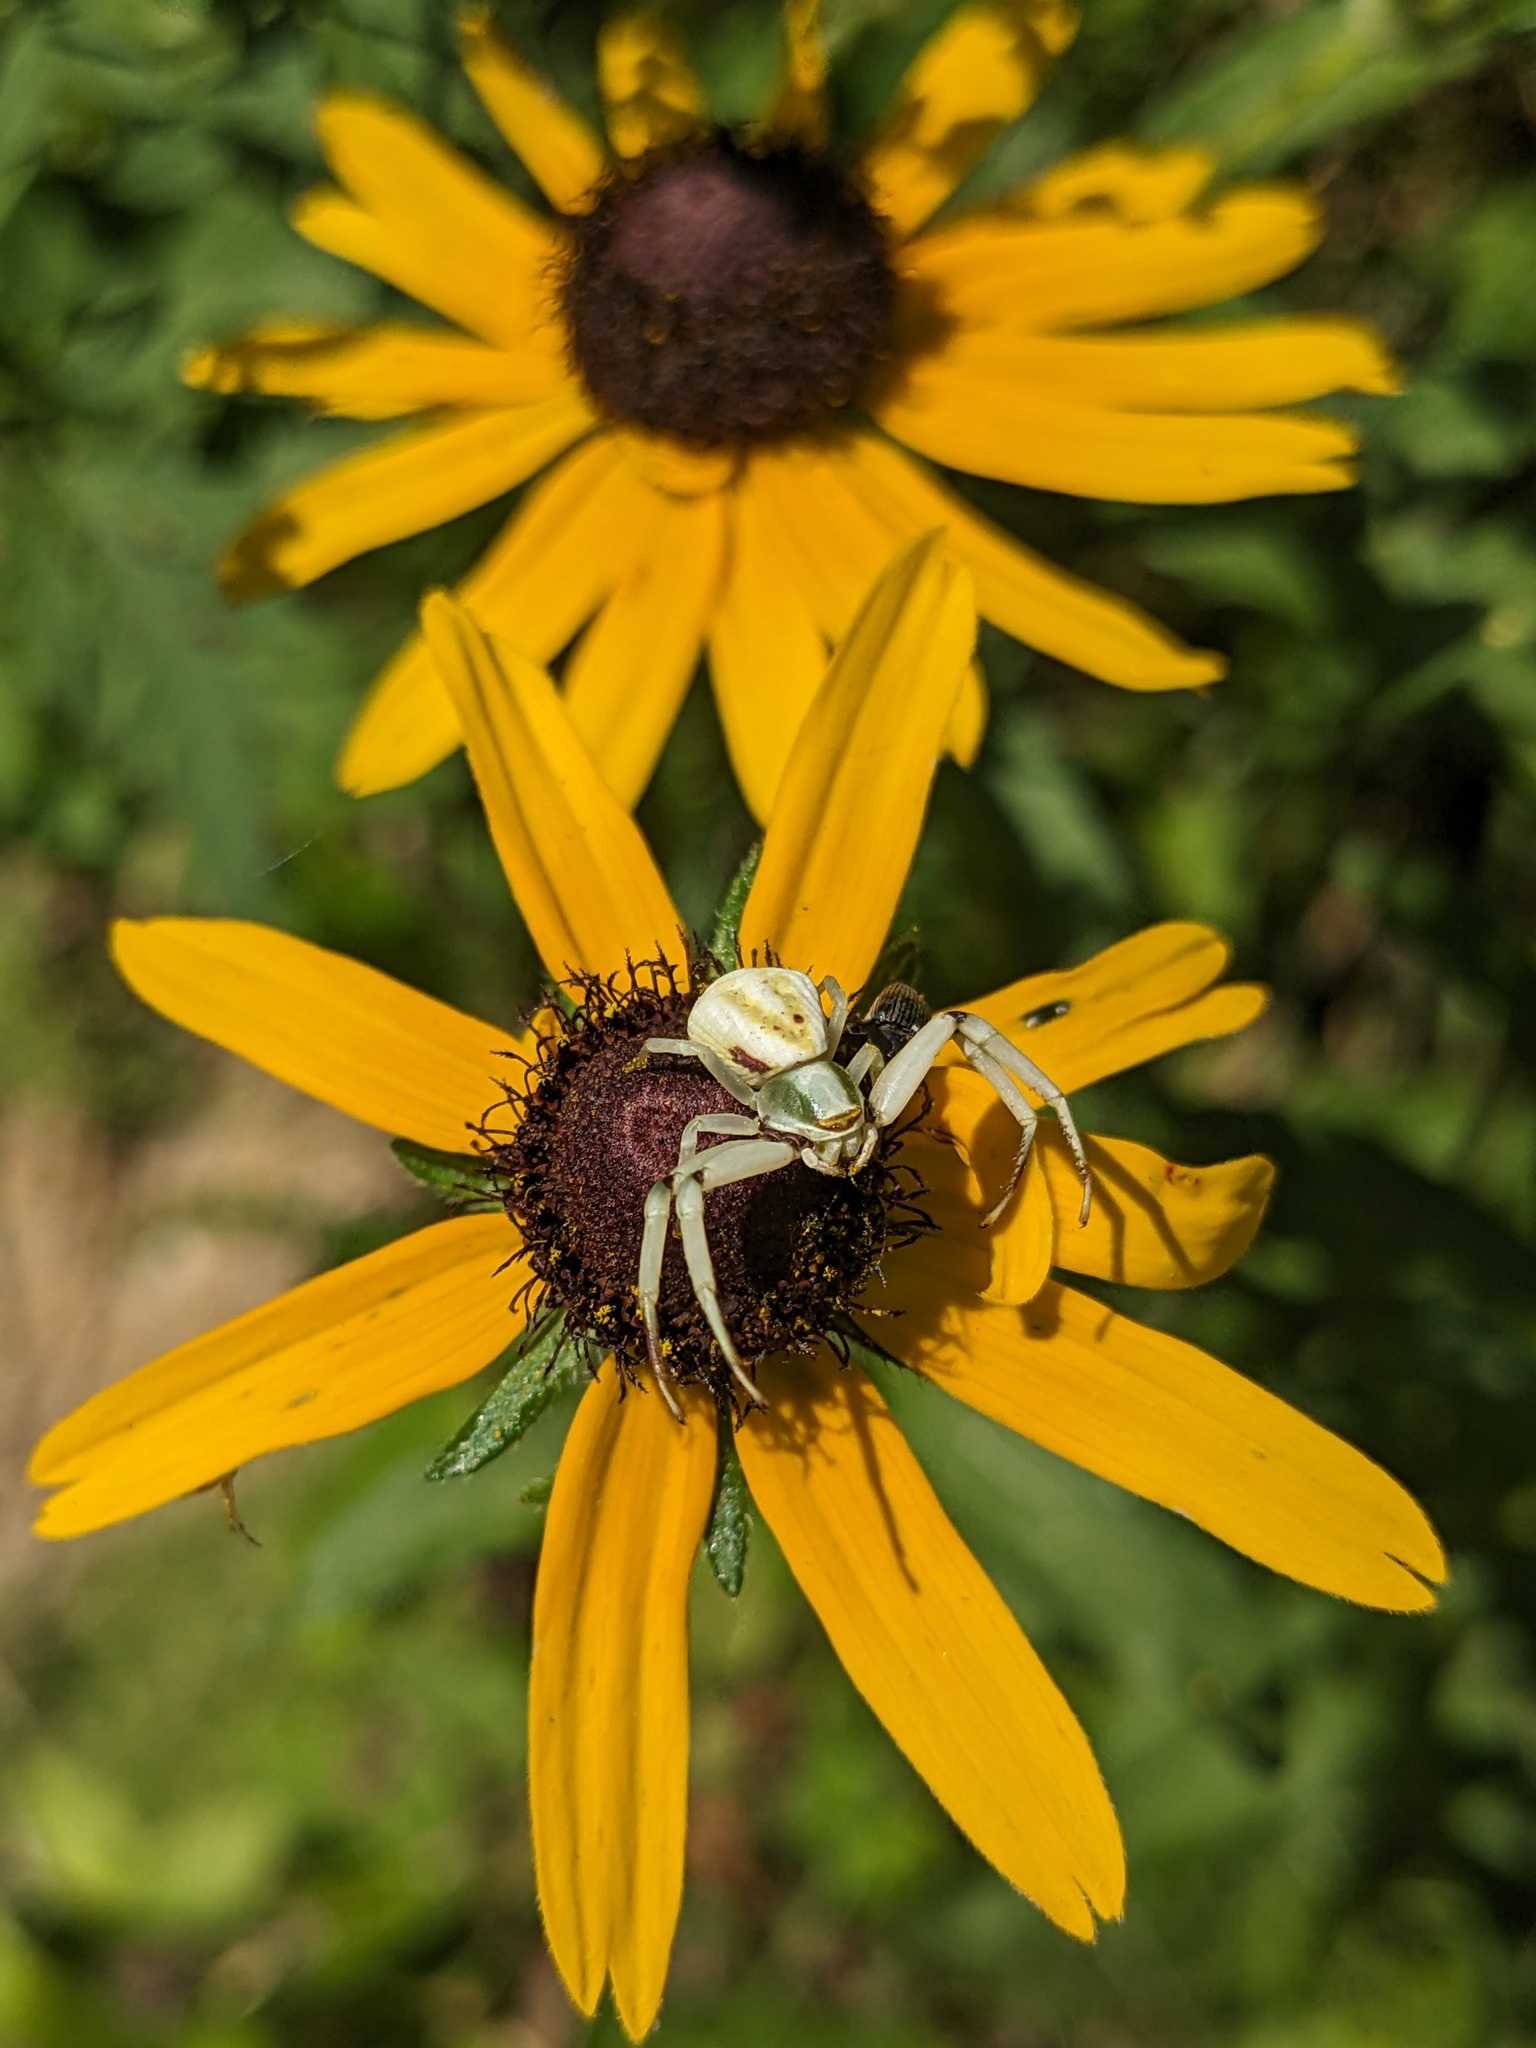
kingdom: Animalia
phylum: Arthropoda
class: Arachnida
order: Araneae
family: Thomisidae
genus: Misumenoides
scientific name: Misumenoides formosipes
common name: White-banded crab spider
